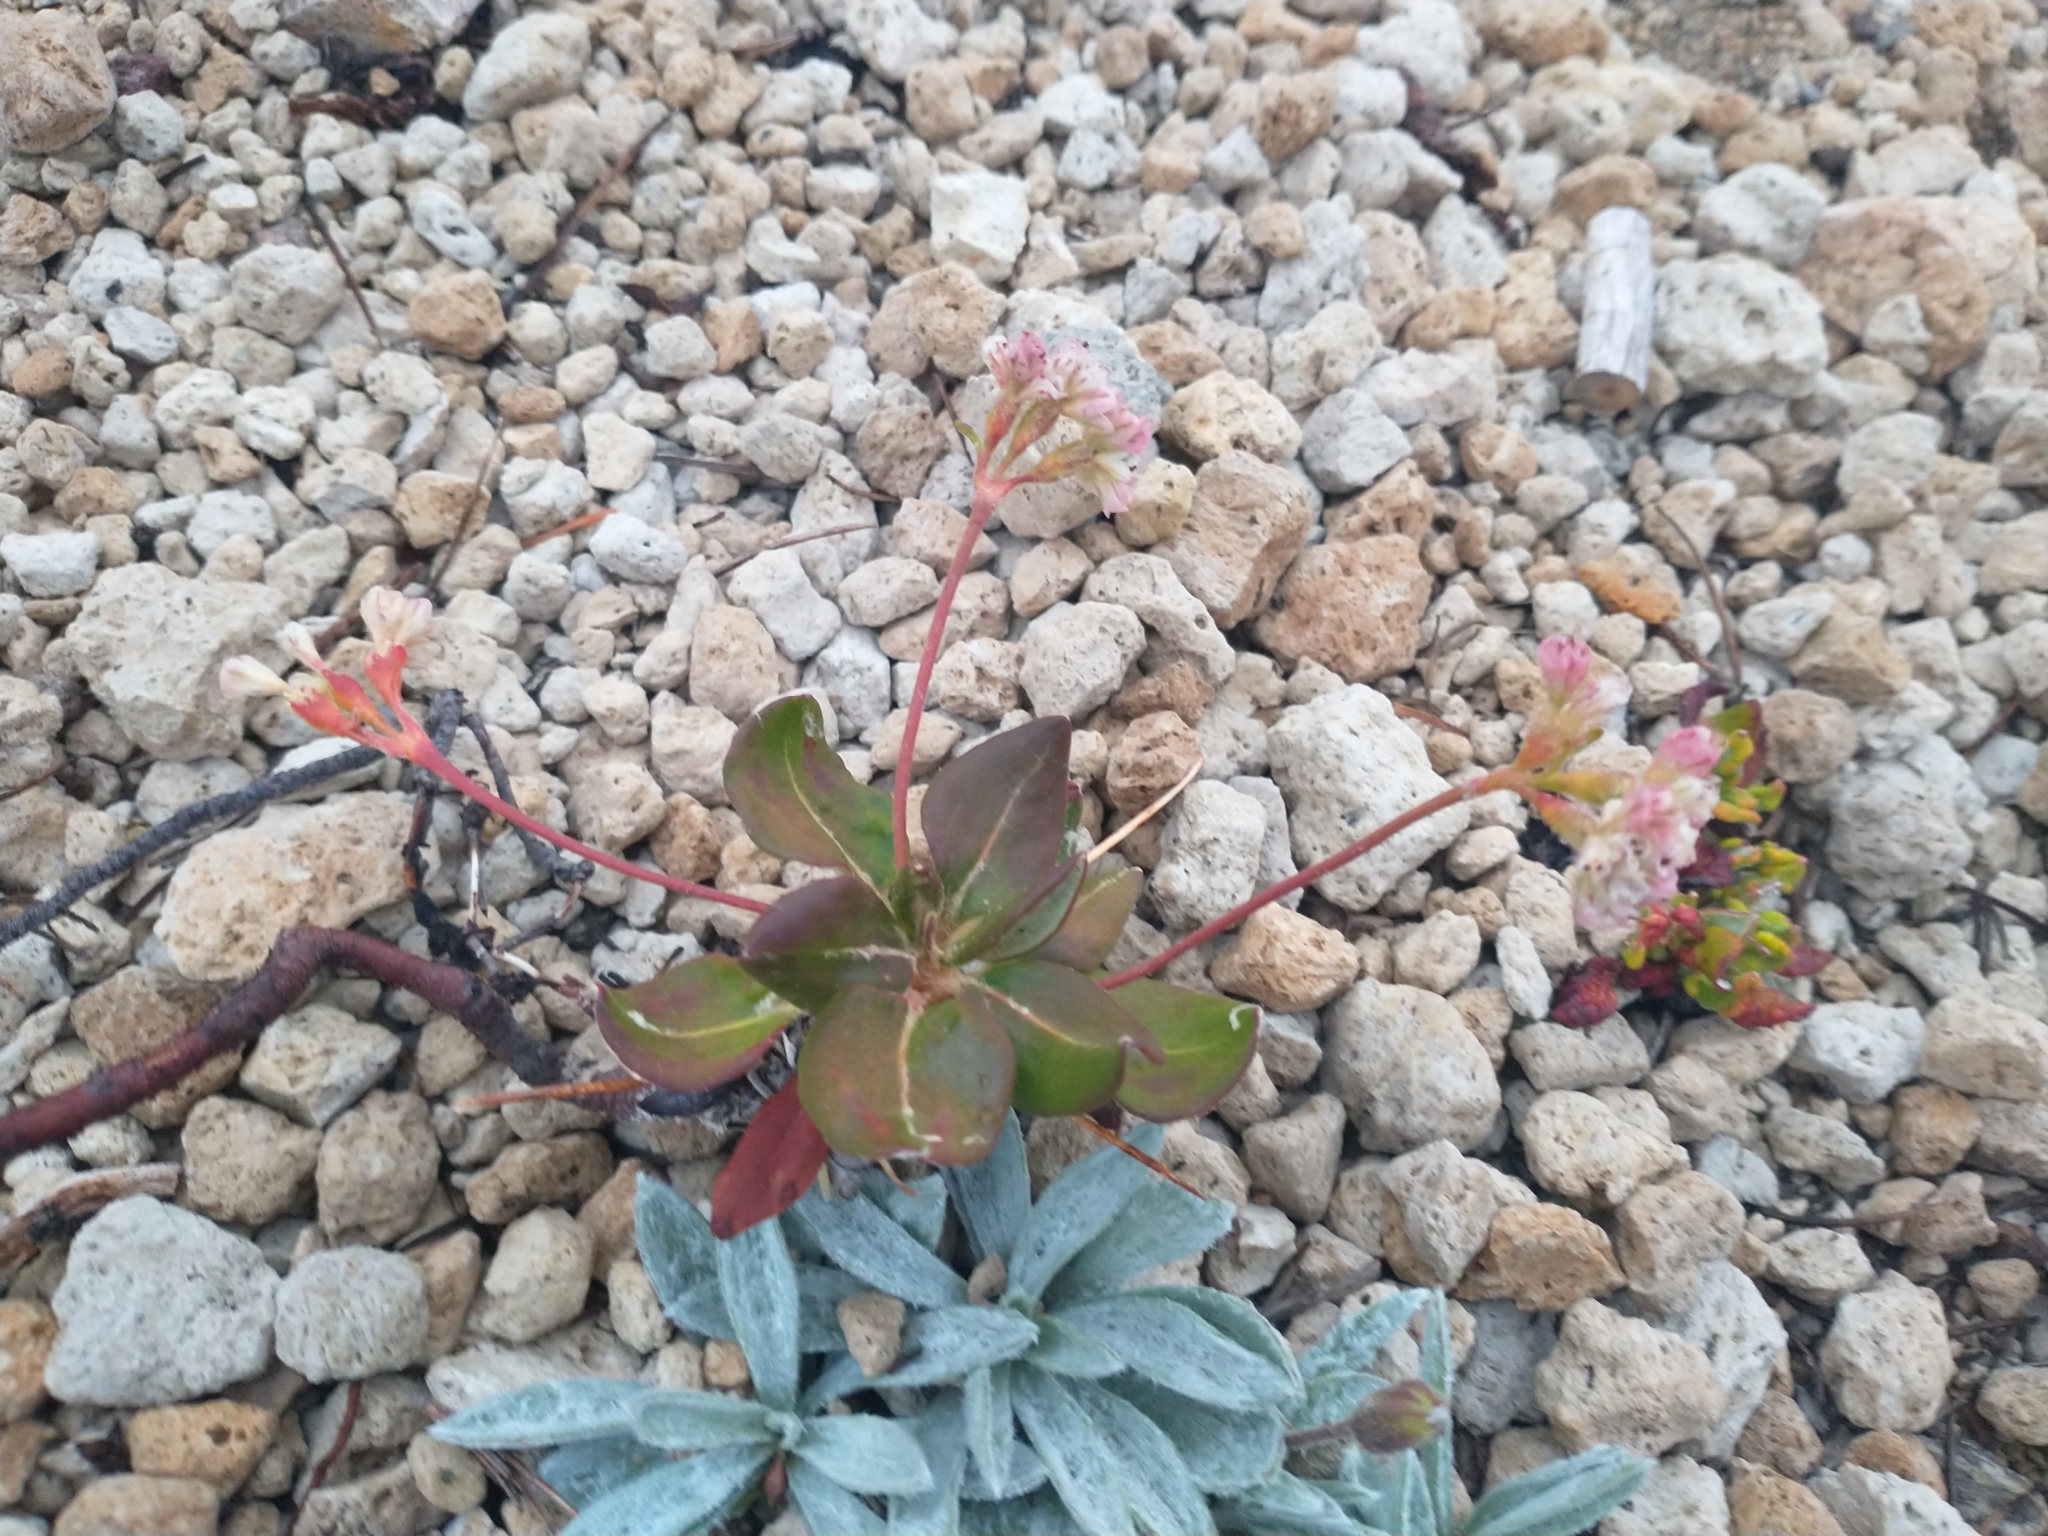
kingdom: Plantae
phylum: Tracheophyta
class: Magnoliopsida
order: Caryophyllales
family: Polygonaceae
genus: Eriogonum
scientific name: Eriogonum pyrolifolium
